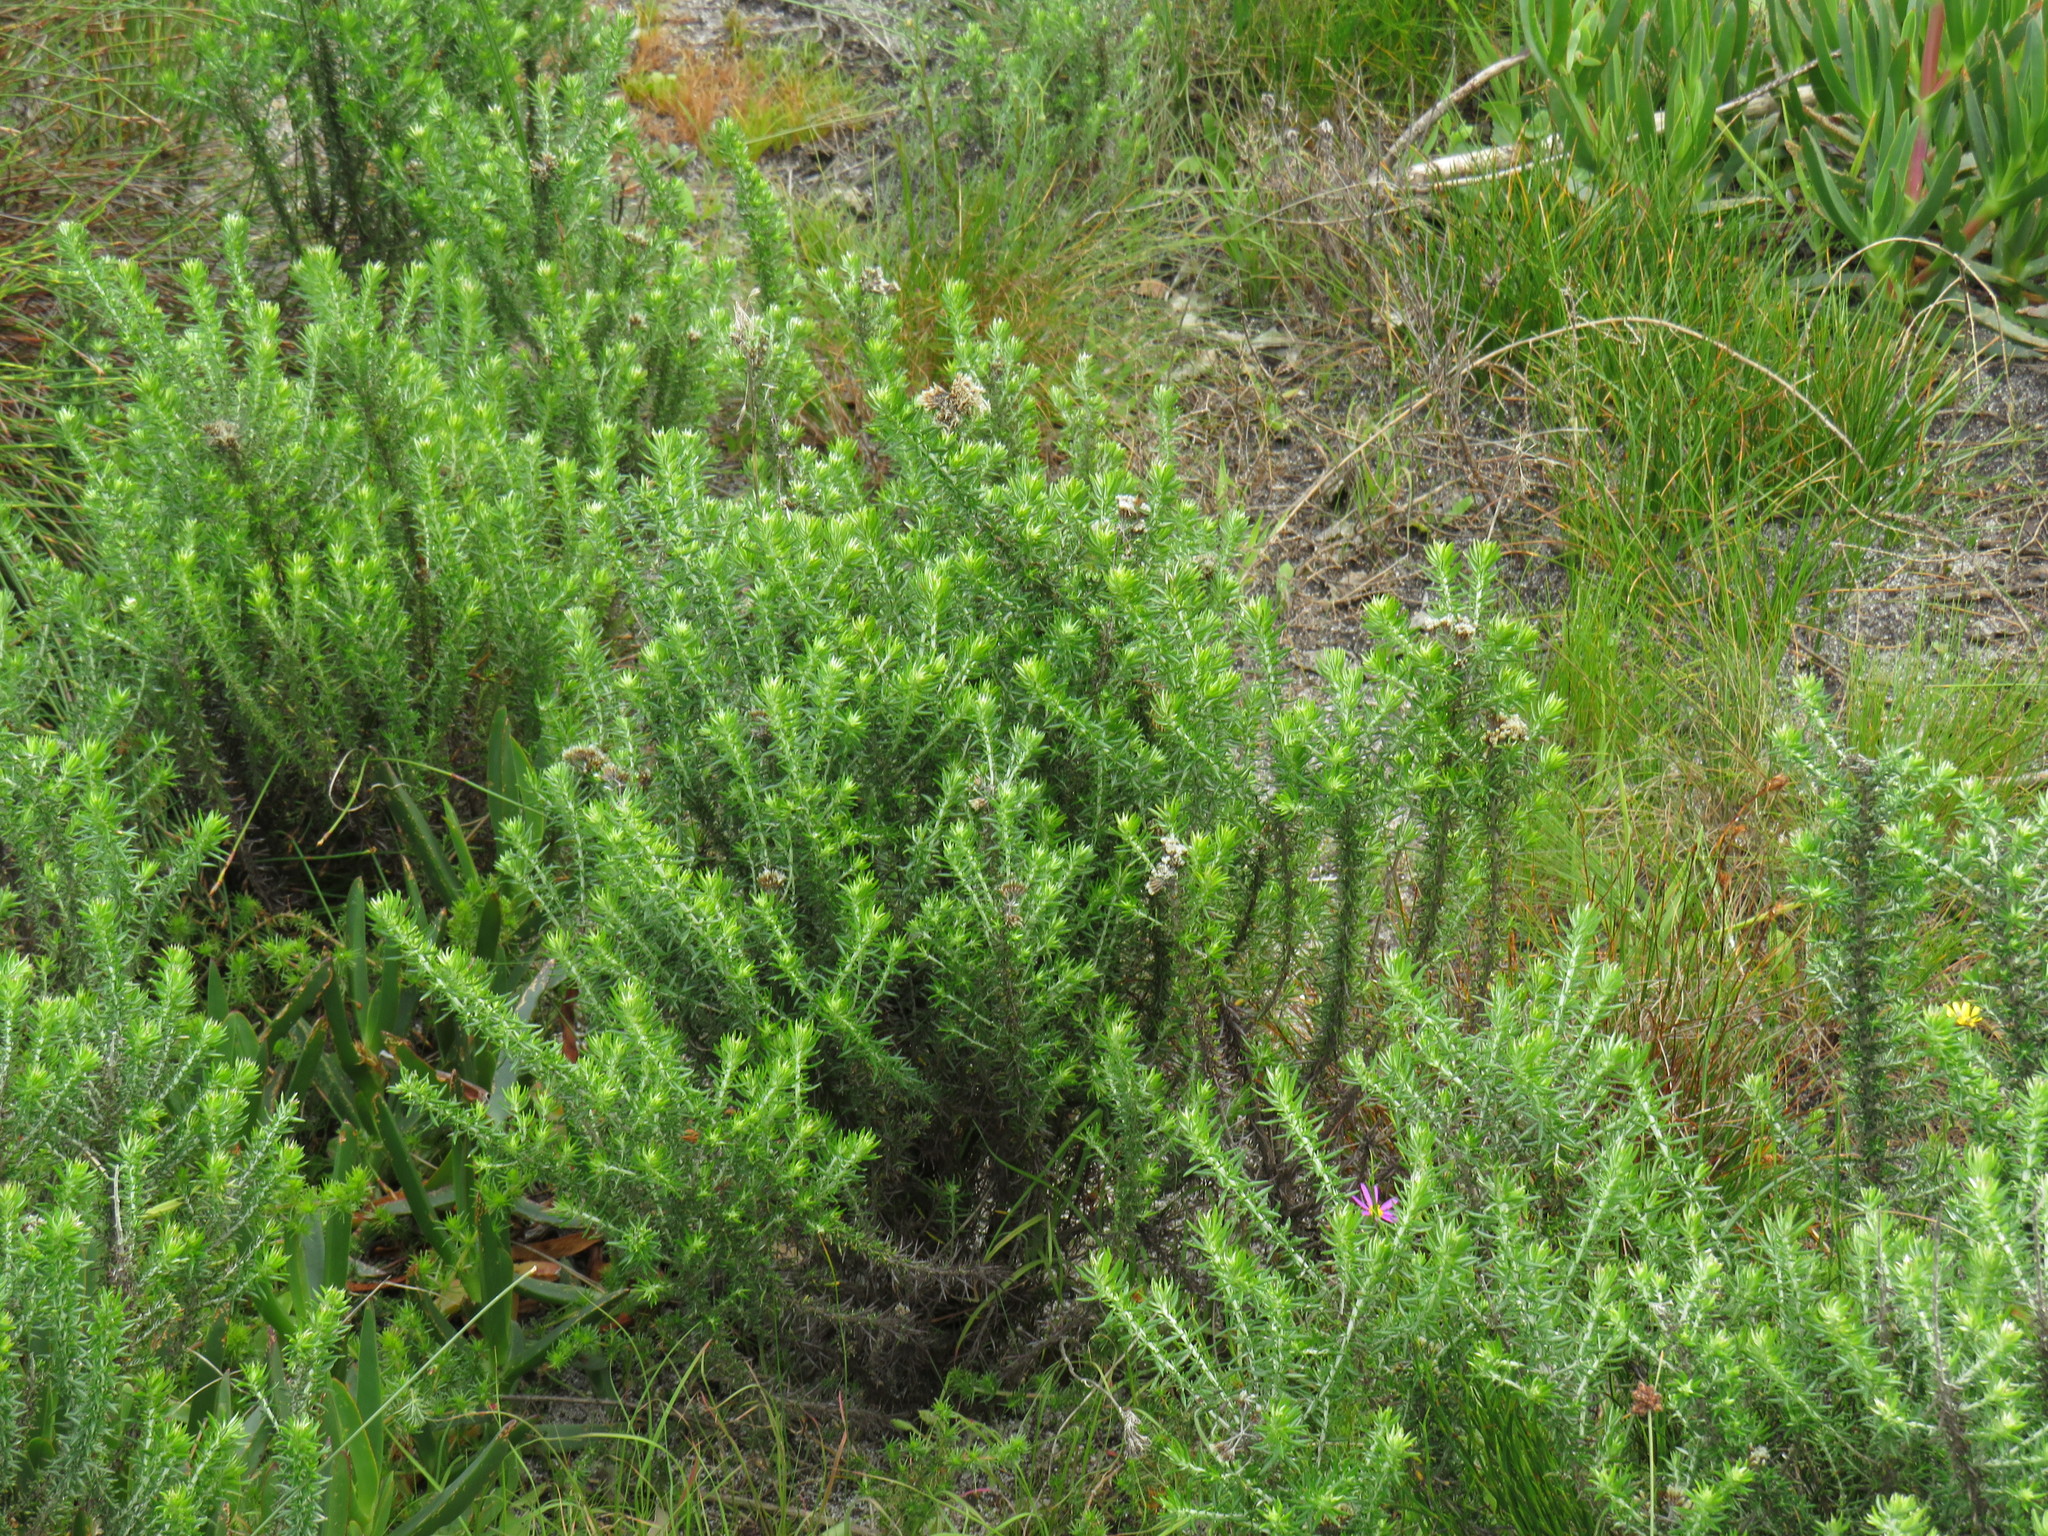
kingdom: Plantae
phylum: Tracheophyta
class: Magnoliopsida
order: Asterales
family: Asteraceae
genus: Metalasia
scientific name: Metalasia densa
